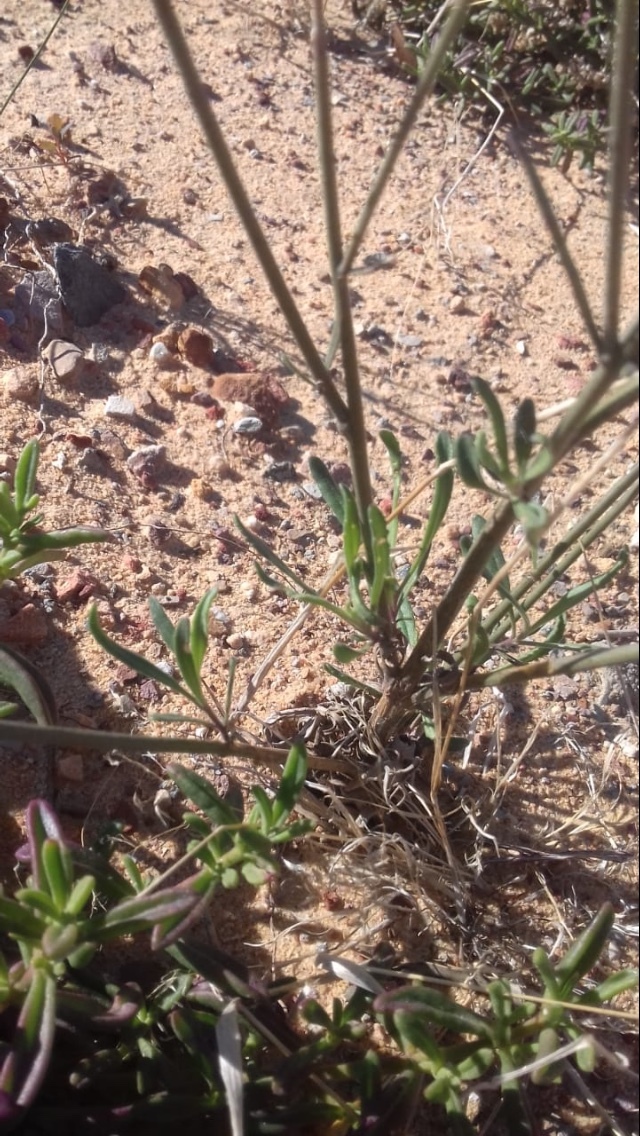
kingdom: Plantae
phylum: Tracheophyta
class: Magnoliopsida
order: Lamiales
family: Scrophulariaceae
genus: Manulea
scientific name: Manulea rubra
